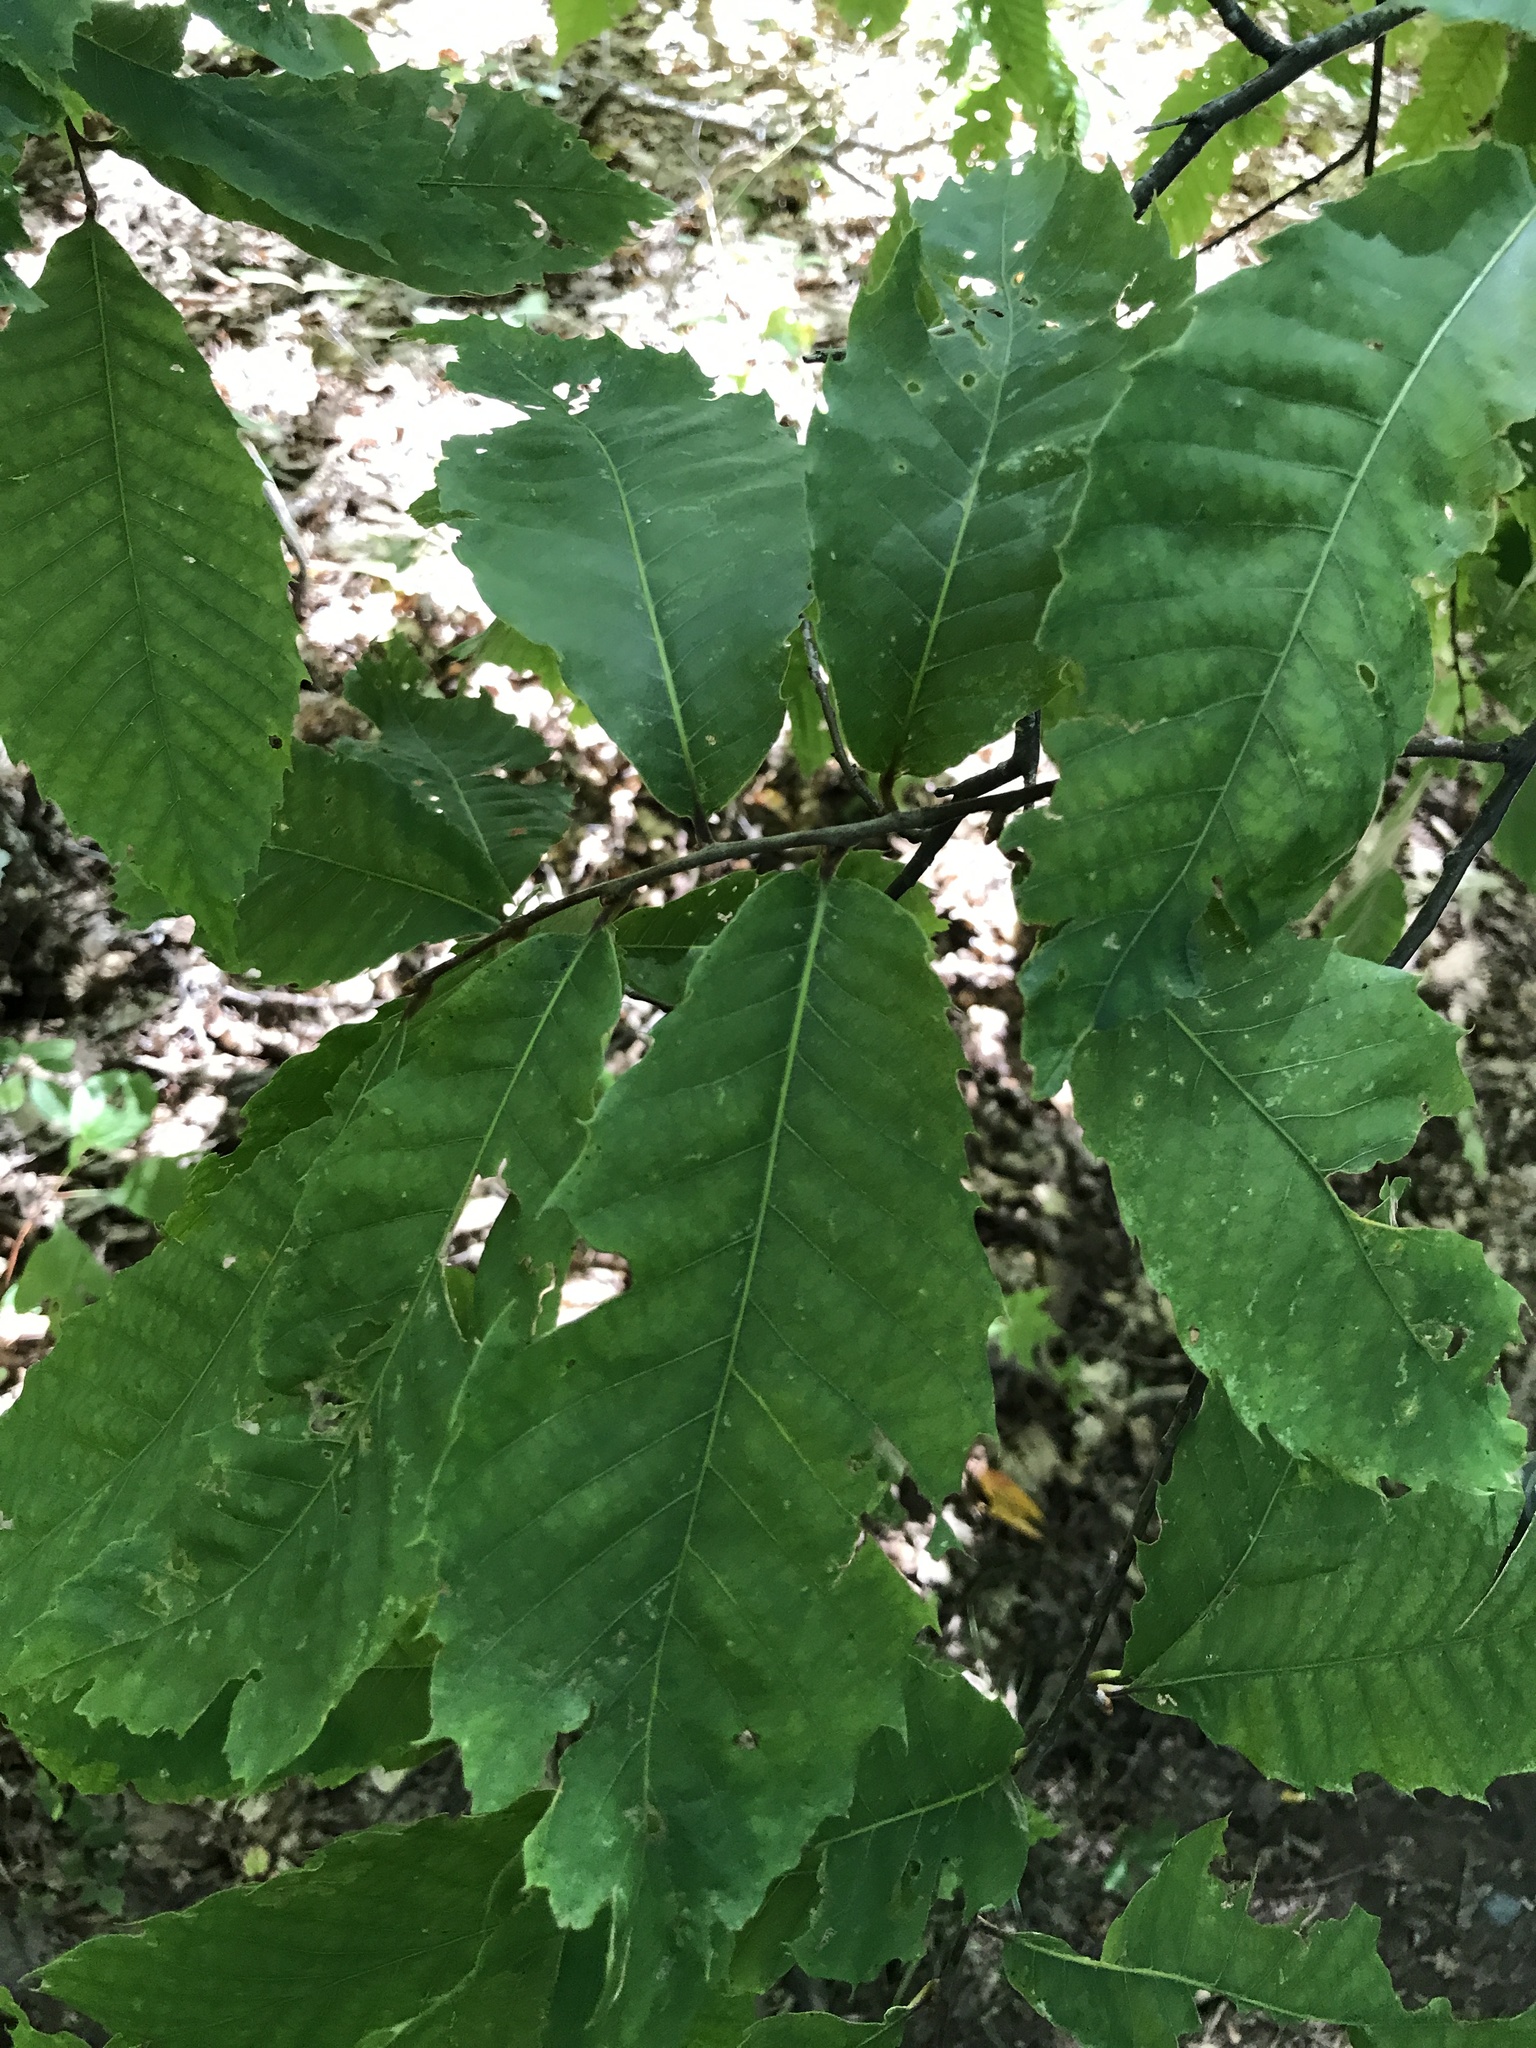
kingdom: Plantae
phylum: Tracheophyta
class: Magnoliopsida
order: Fagales
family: Fagaceae
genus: Castanea
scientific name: Castanea dentata
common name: American chestnut
